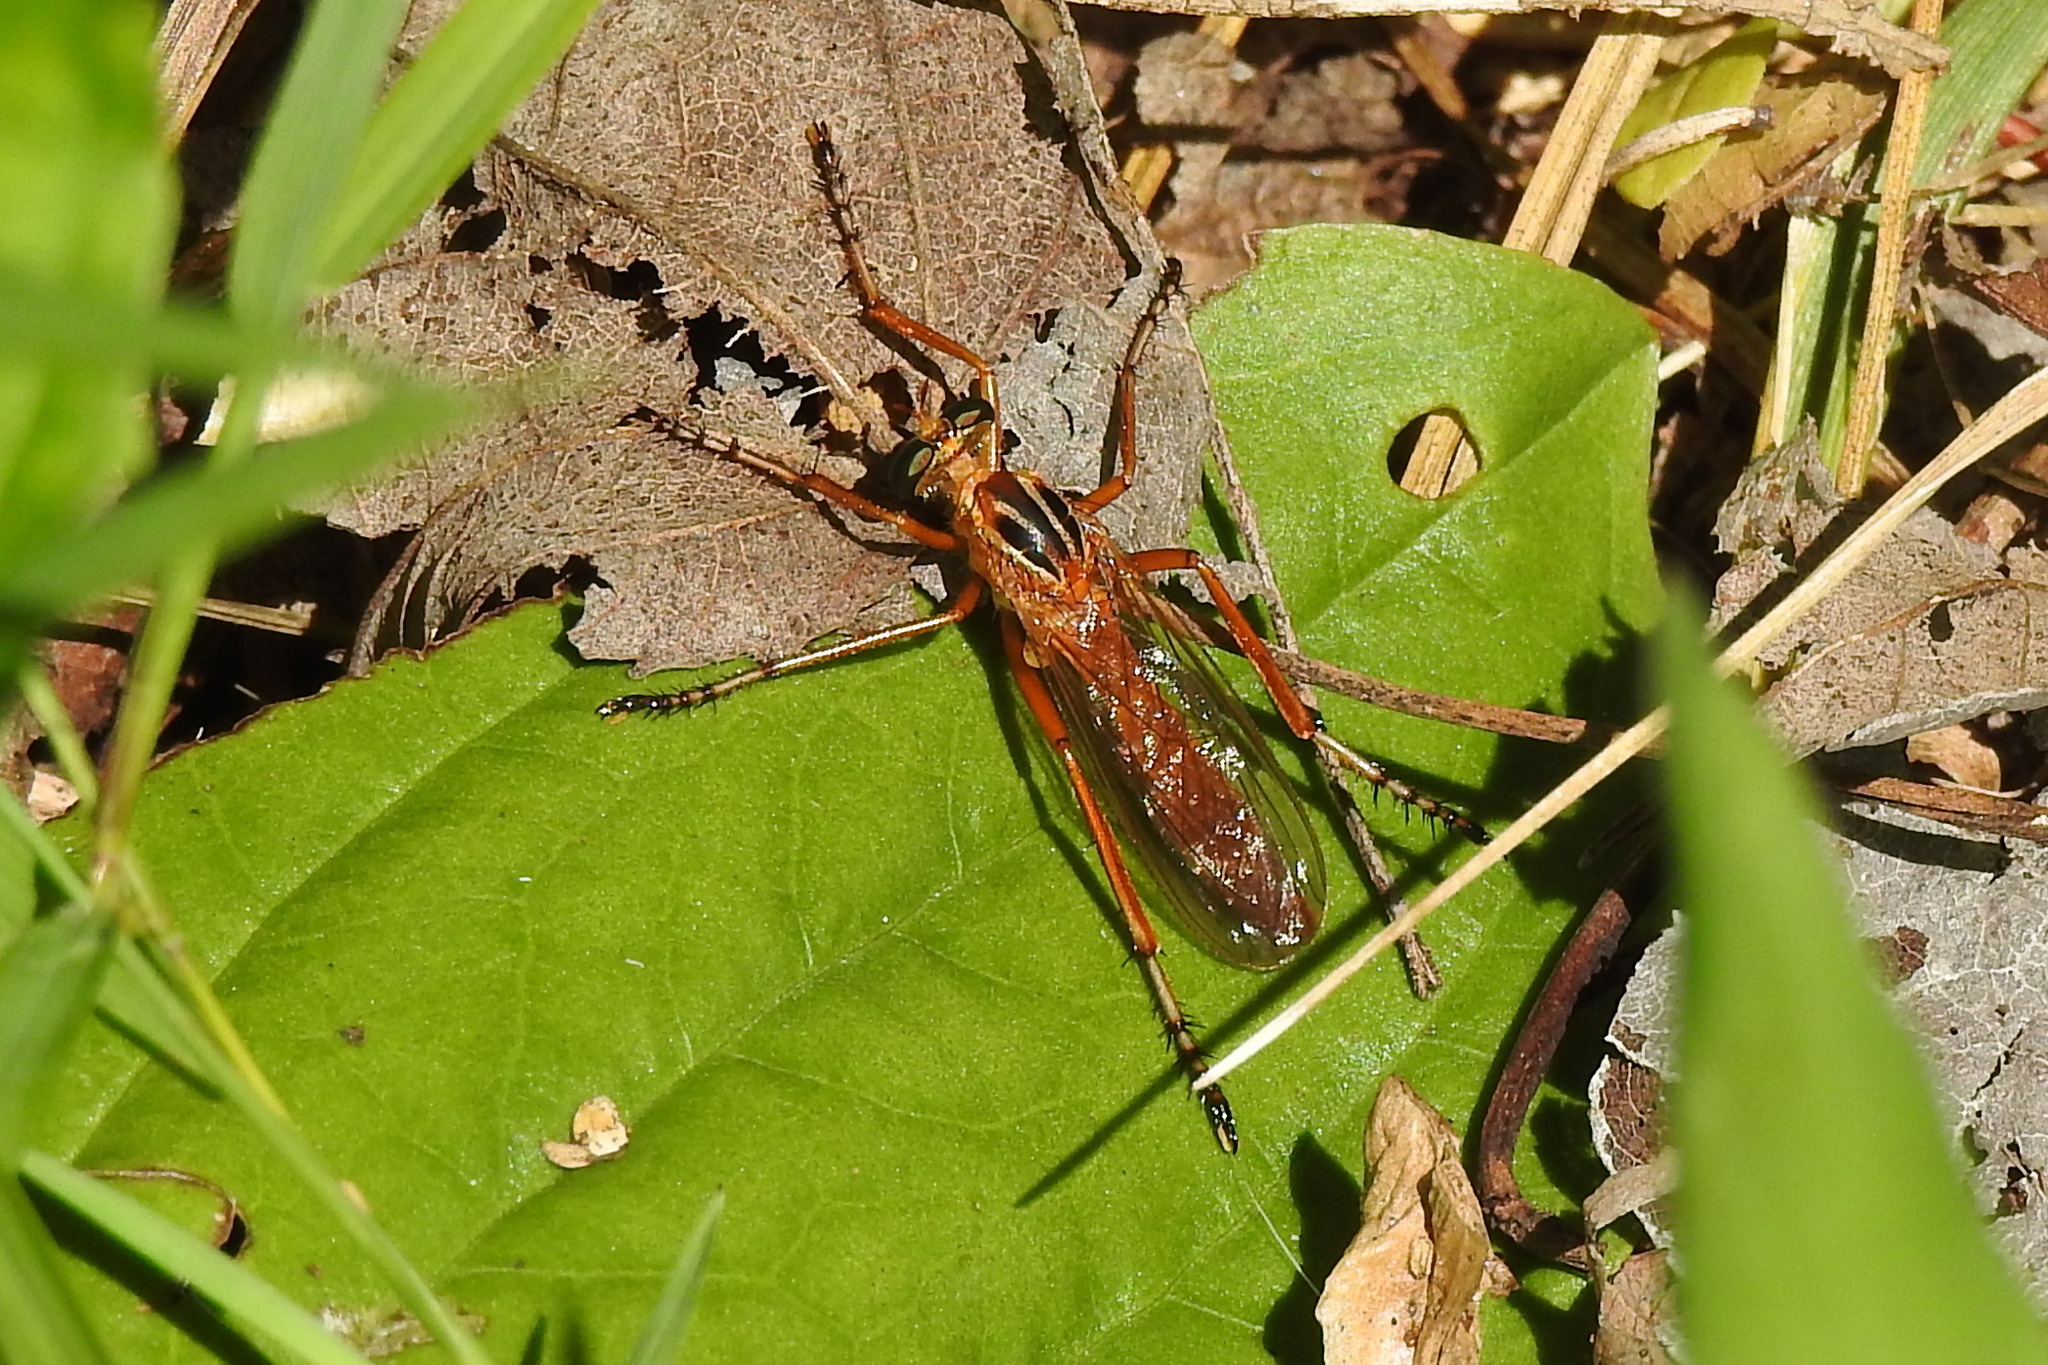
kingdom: Animalia
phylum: Arthropoda
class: Insecta
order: Diptera
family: Asilidae
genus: Diogmites
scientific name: Diogmites neoternatus
